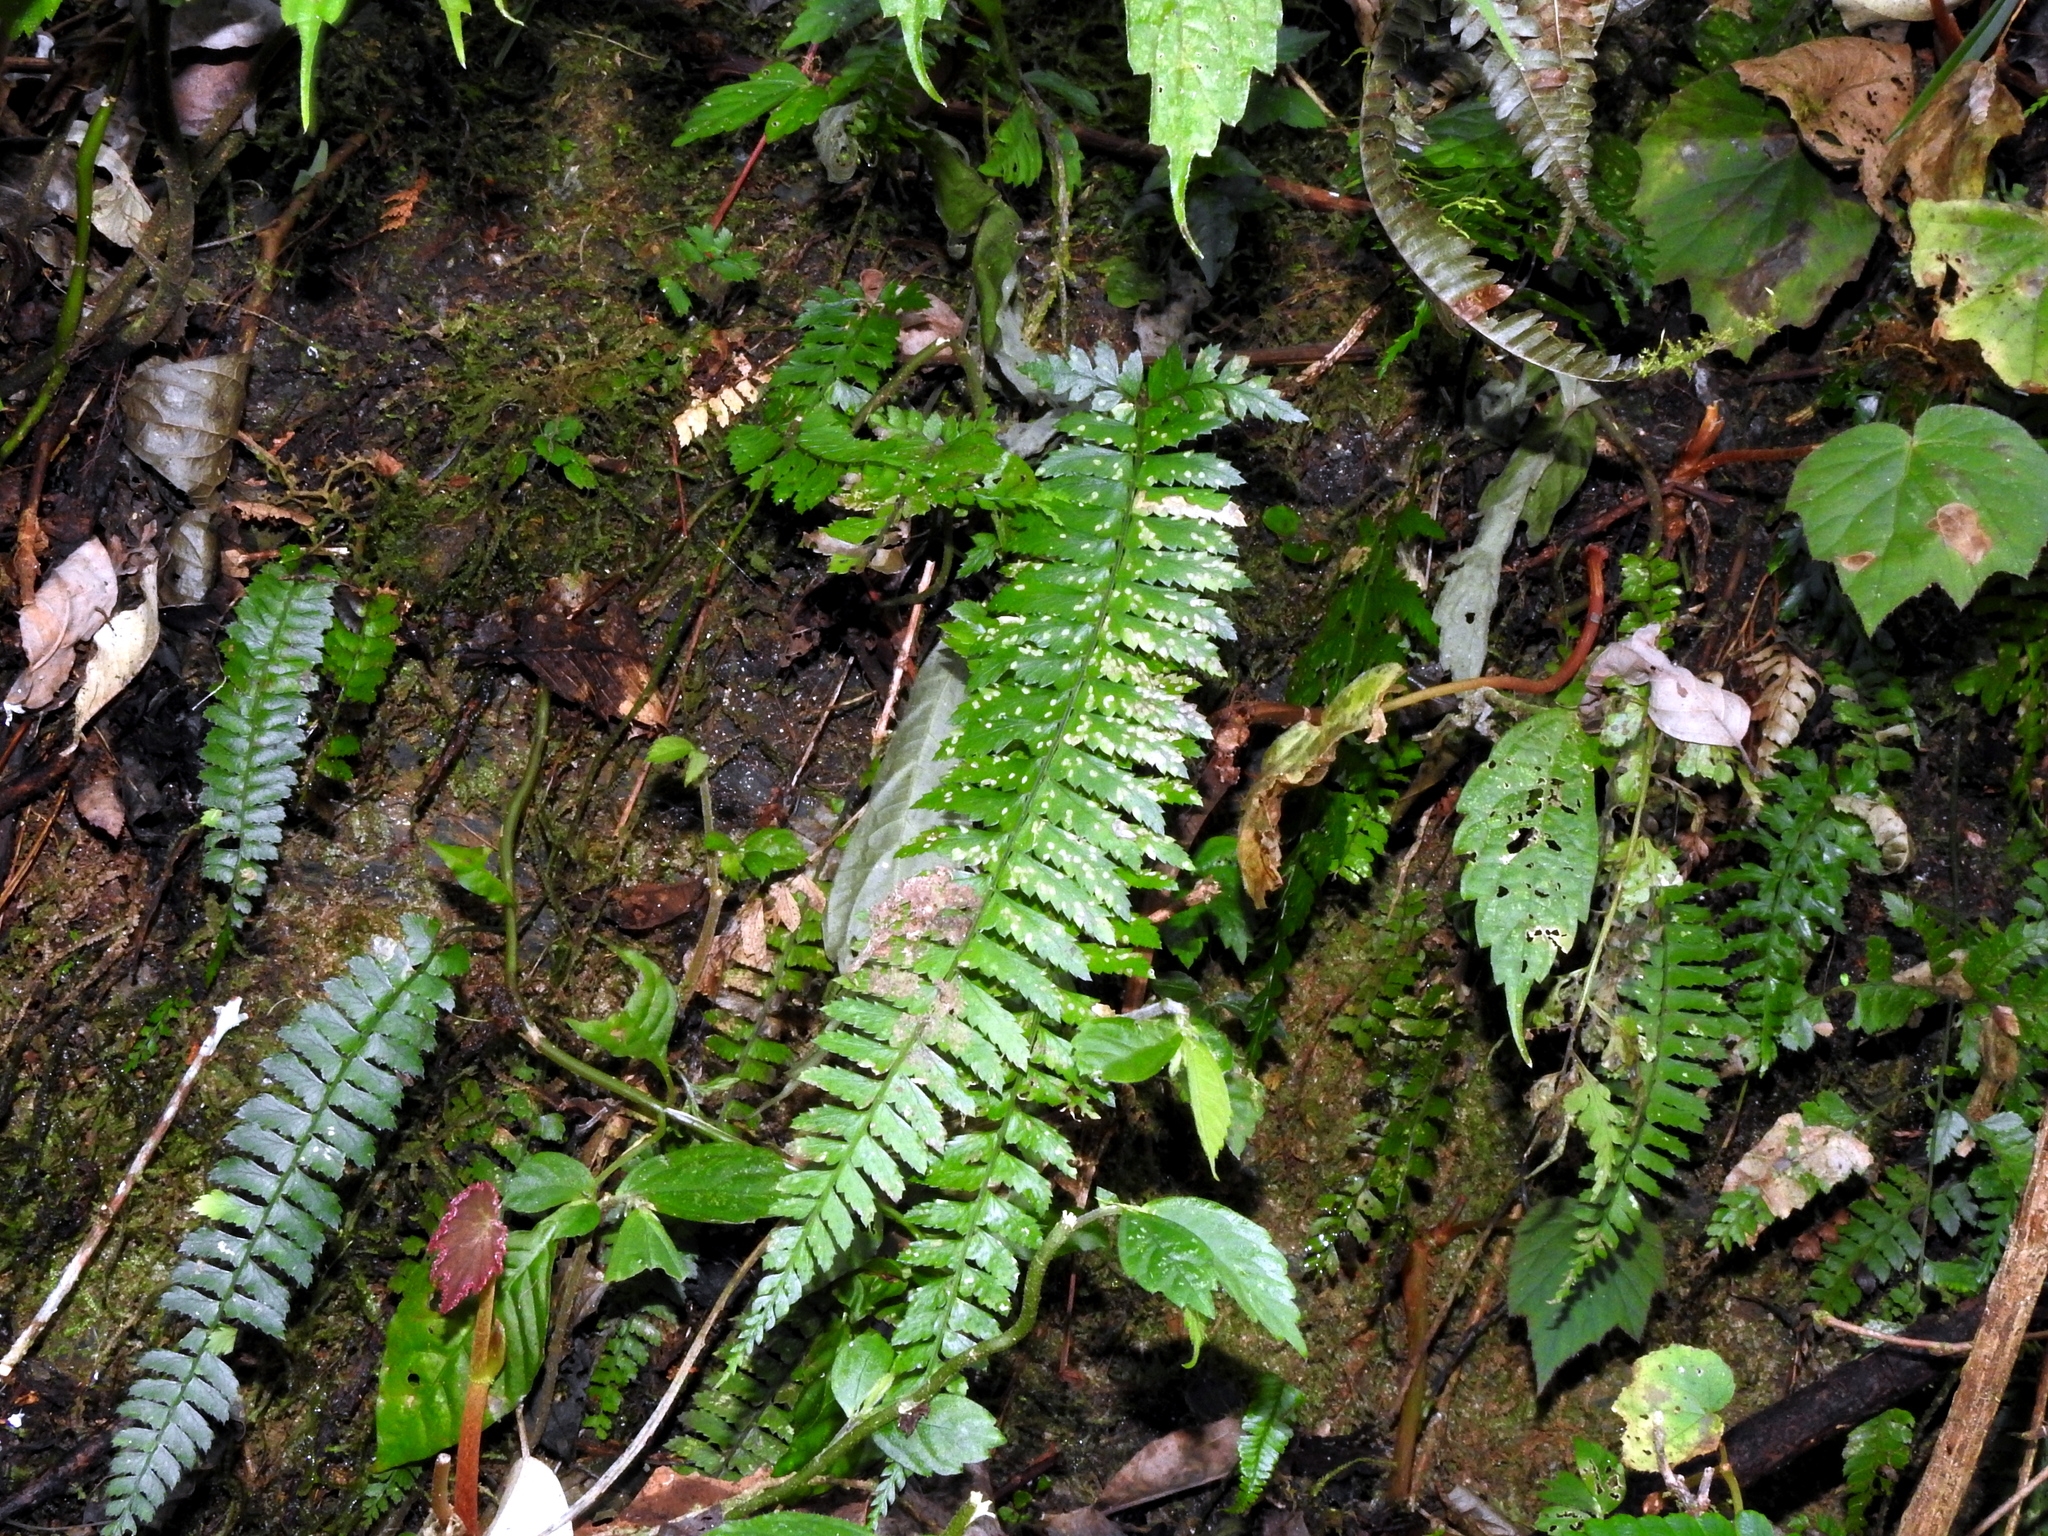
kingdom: Plantae
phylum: Tracheophyta
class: Polypodiopsida
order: Polypodiales
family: Dryopteridaceae
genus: Polystichum
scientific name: Polystichum hancockii
